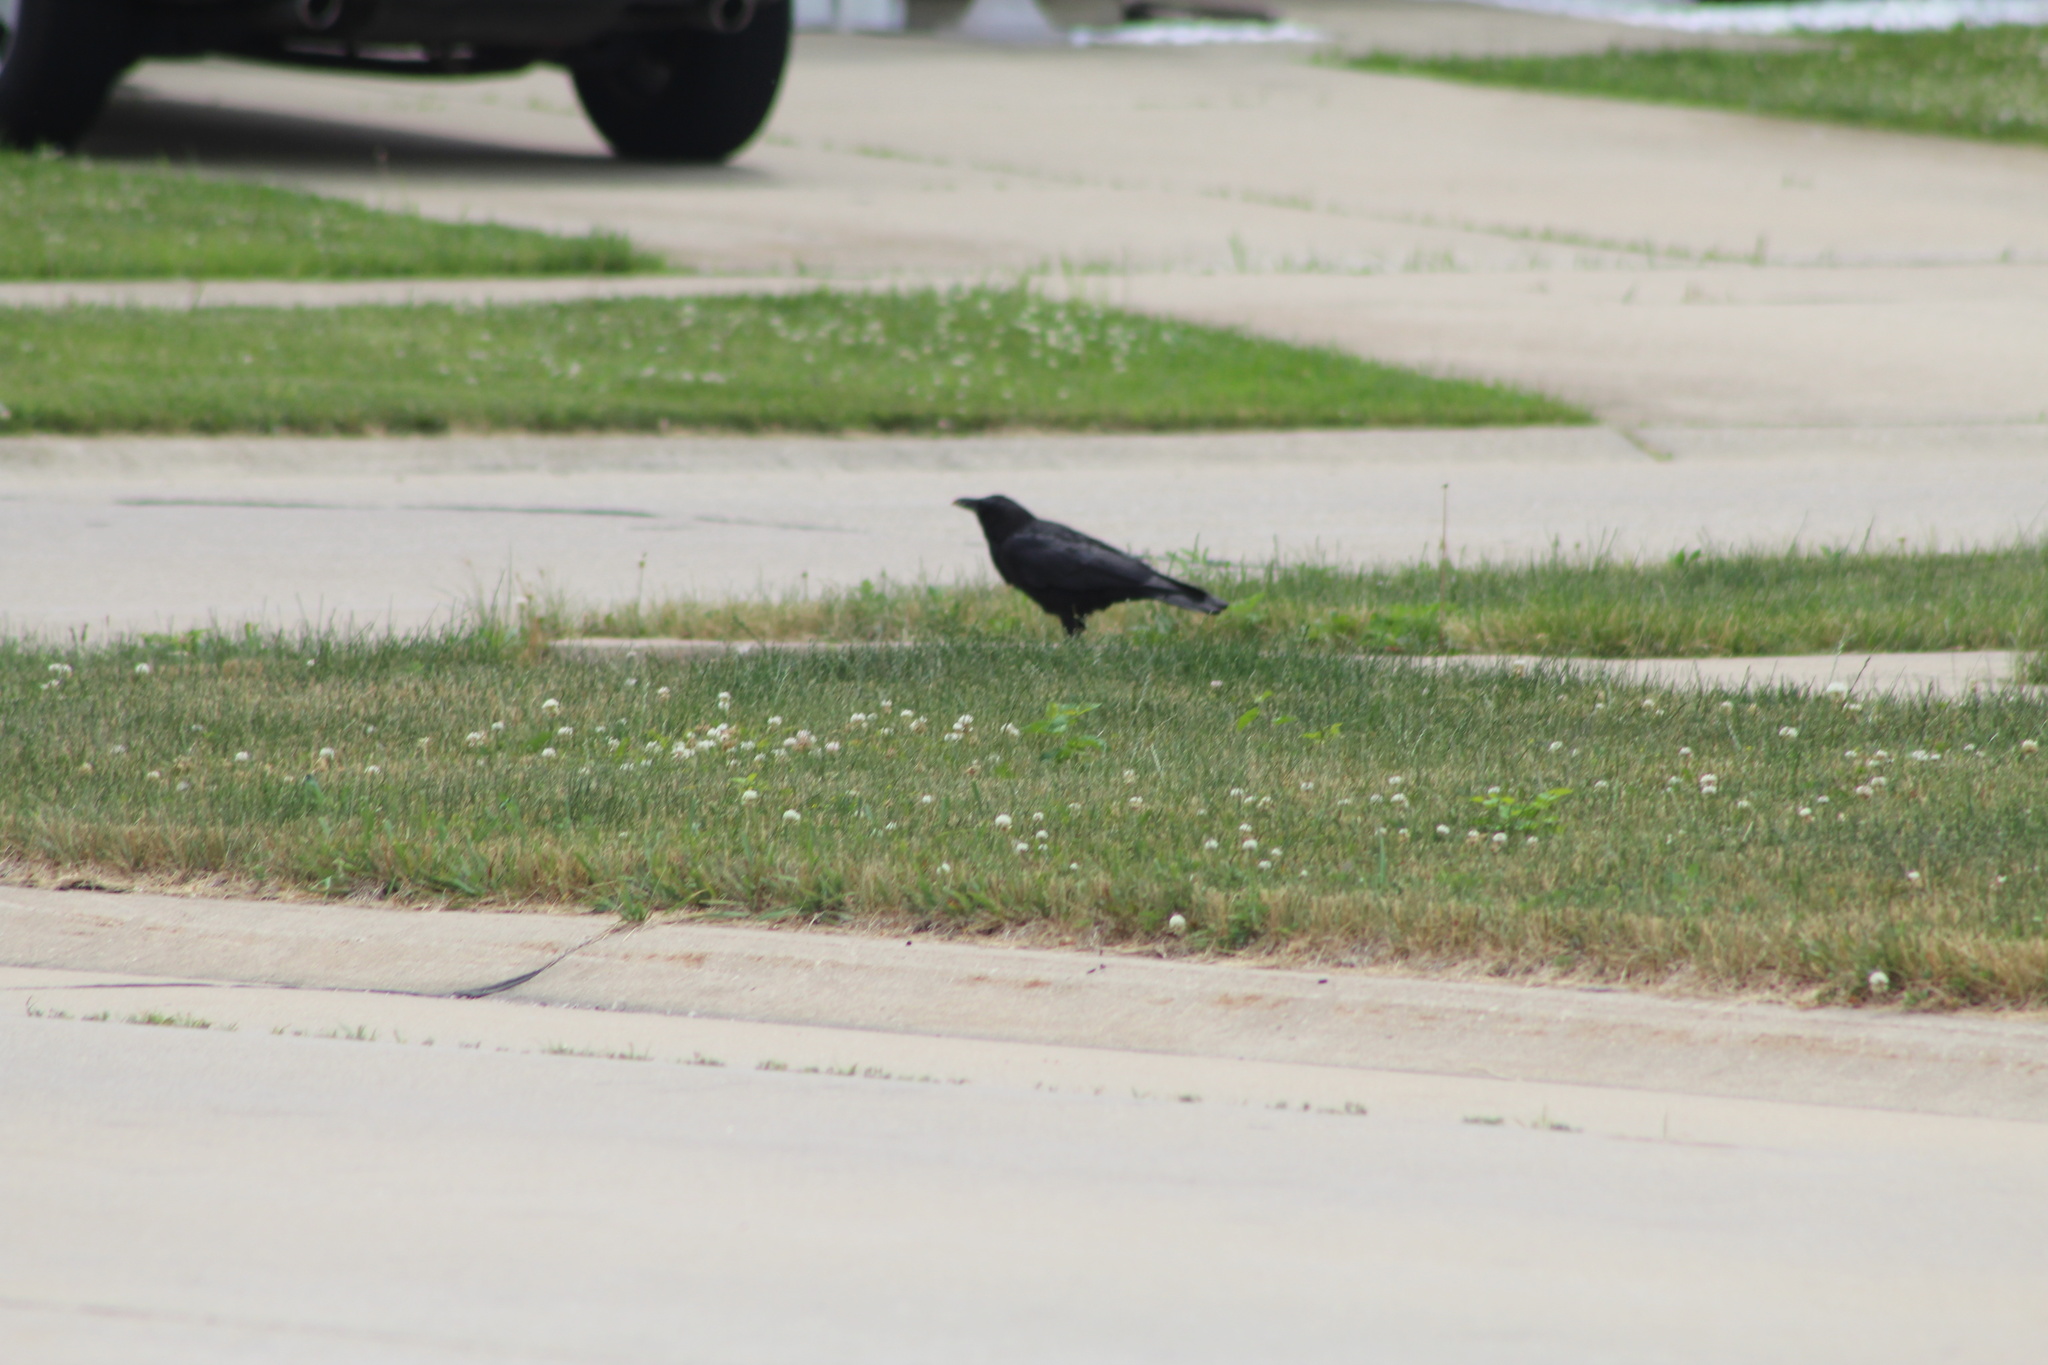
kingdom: Animalia
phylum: Chordata
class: Aves
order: Passeriformes
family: Corvidae
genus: Corvus
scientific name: Corvus brachyrhynchos
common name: American crow
